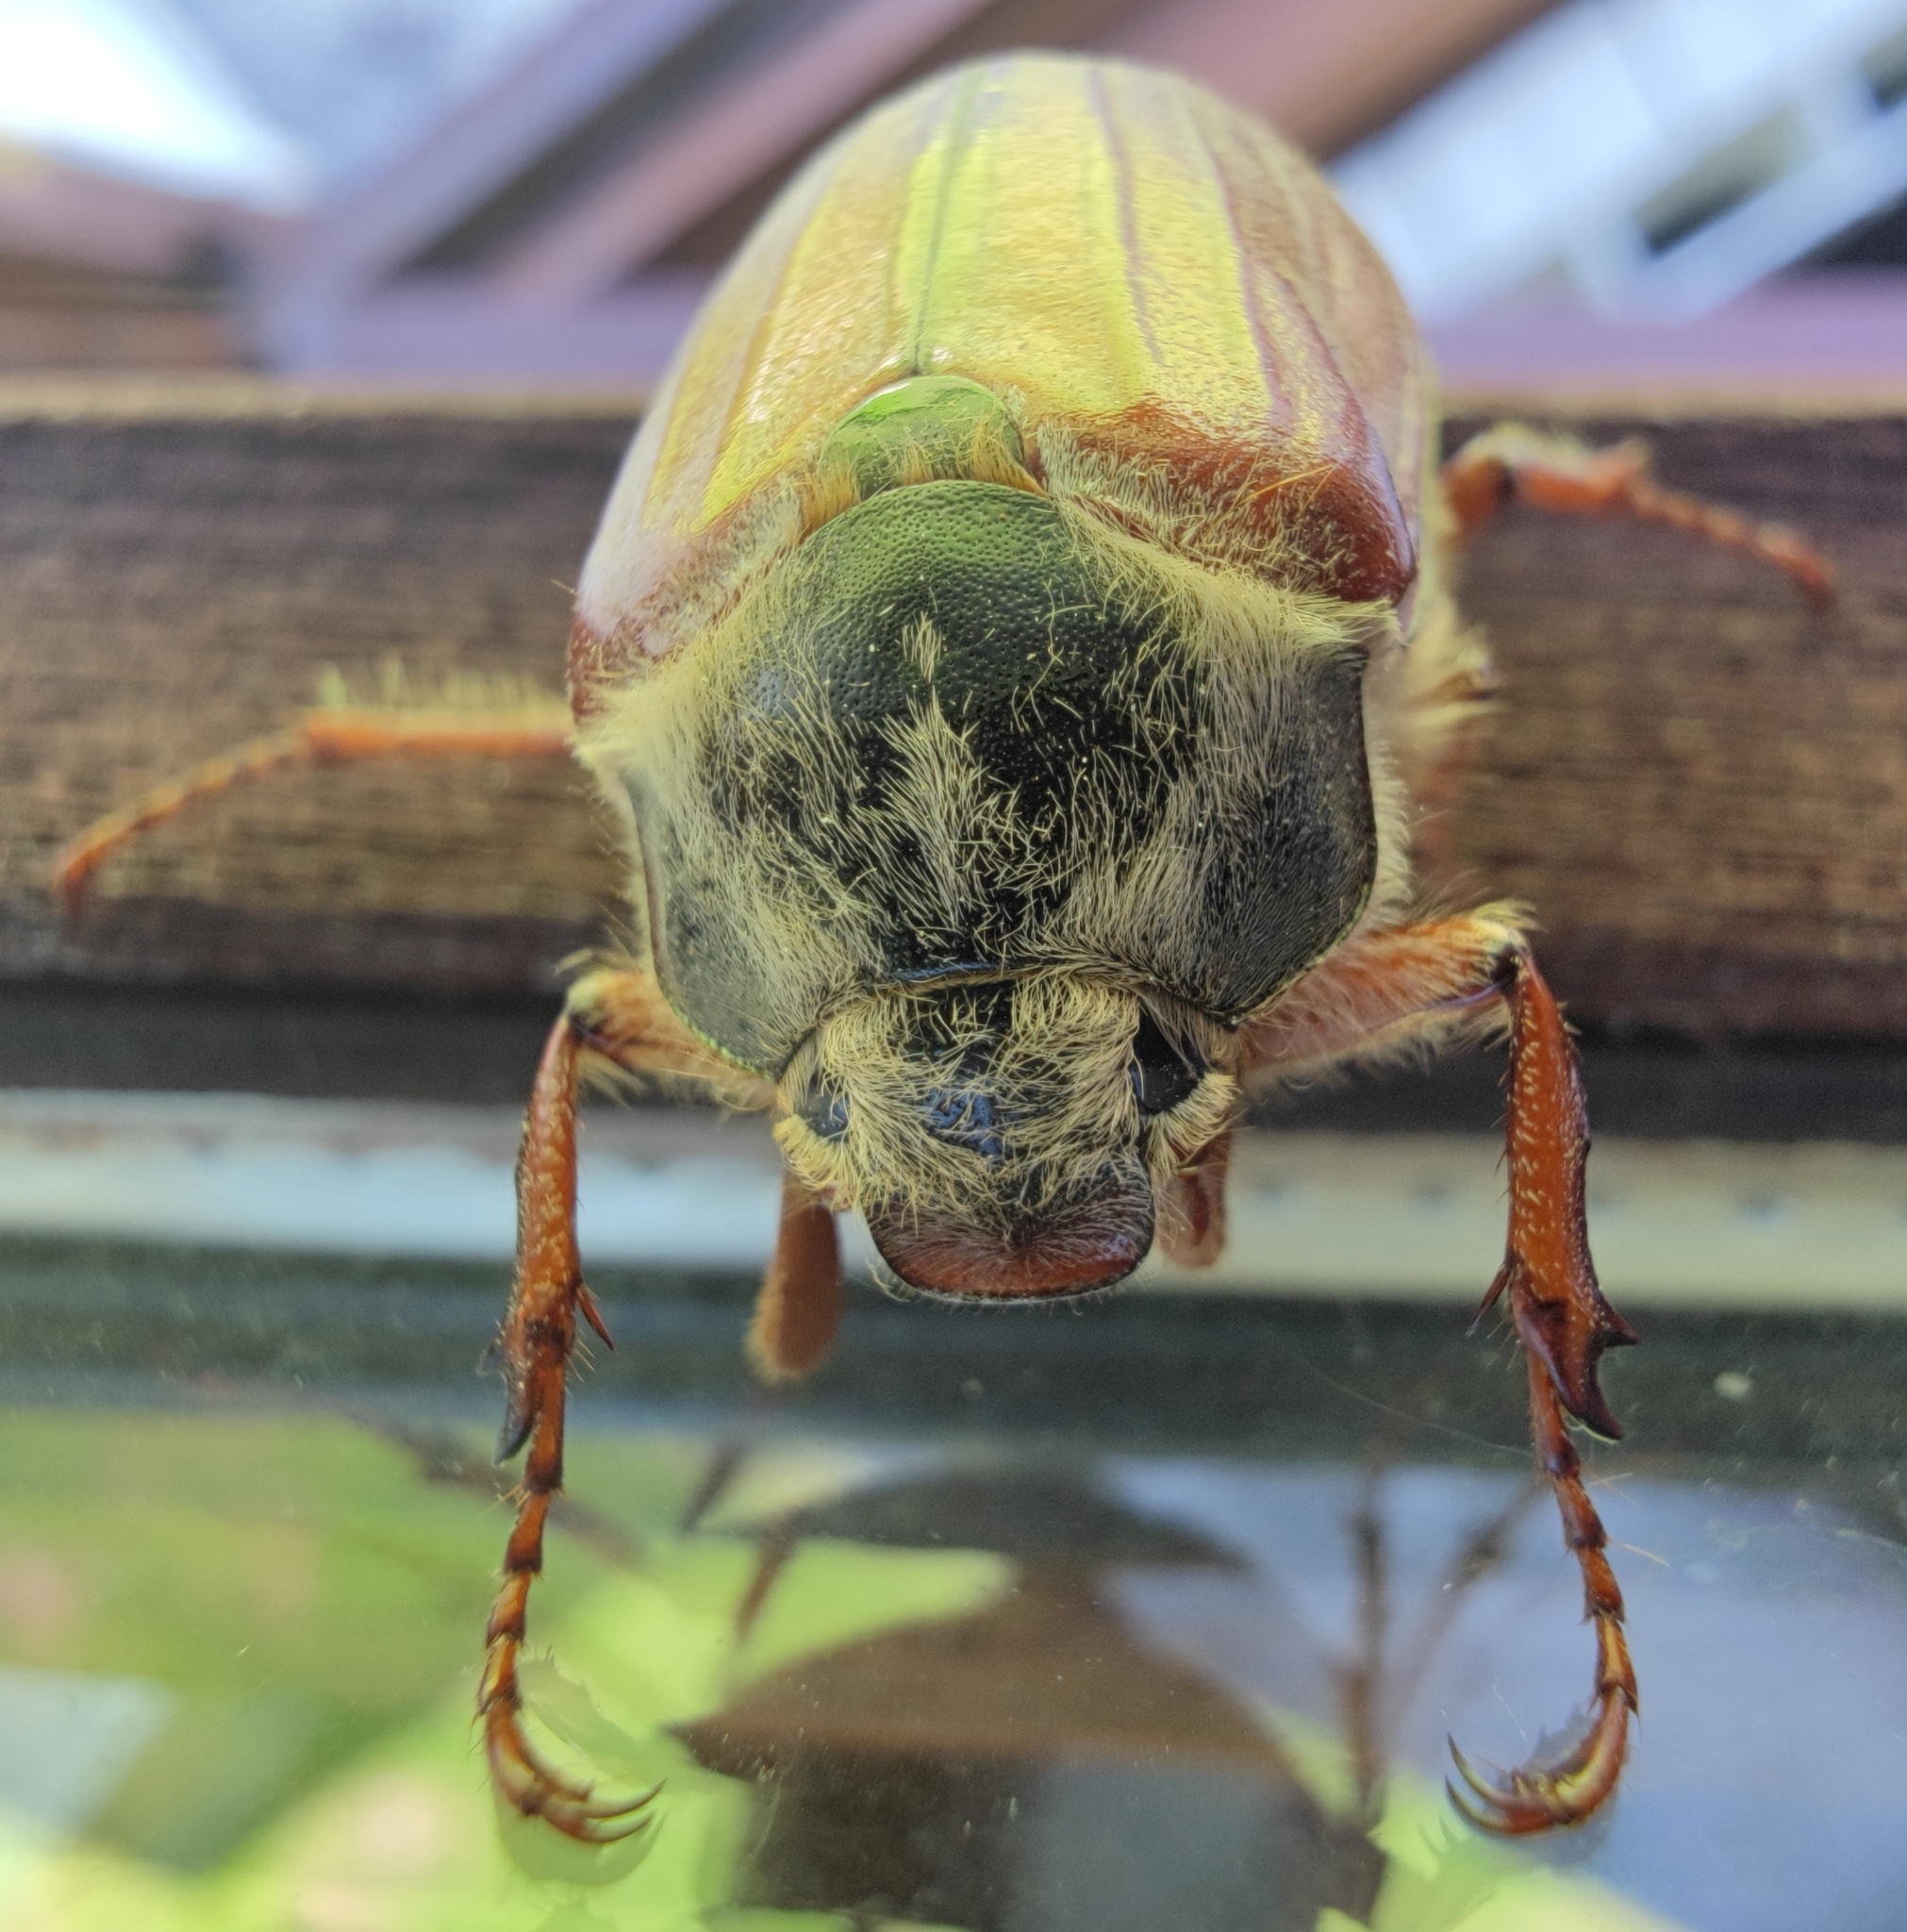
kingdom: Animalia
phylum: Arthropoda
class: Insecta
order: Coleoptera
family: Scarabaeidae
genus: Melolontha
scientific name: Melolontha melolontha
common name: Cockchafer maybeetle
